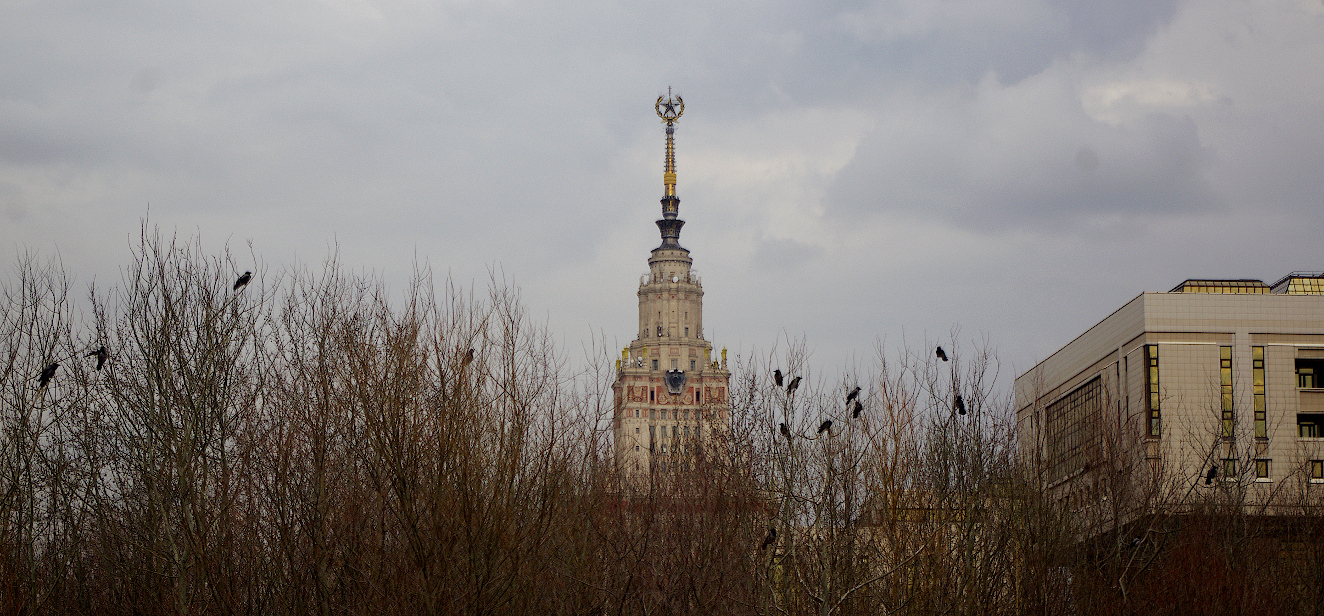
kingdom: Animalia
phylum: Chordata
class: Aves
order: Passeriformes
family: Corvidae
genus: Corvus
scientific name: Corvus cornix
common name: Hooded crow
